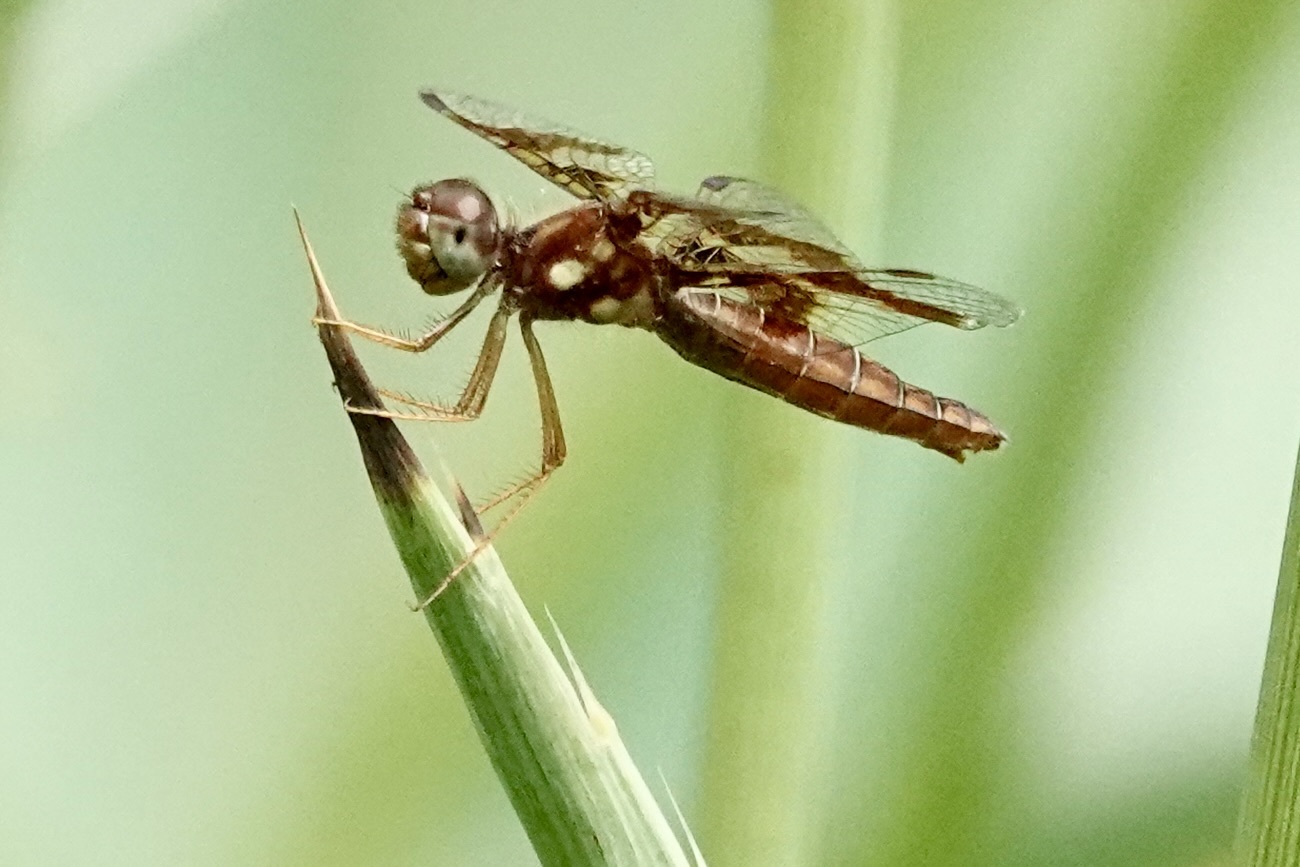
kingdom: Animalia
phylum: Arthropoda
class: Insecta
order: Odonata
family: Libellulidae
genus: Perithemis
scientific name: Perithemis tenera
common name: Eastern amberwing
